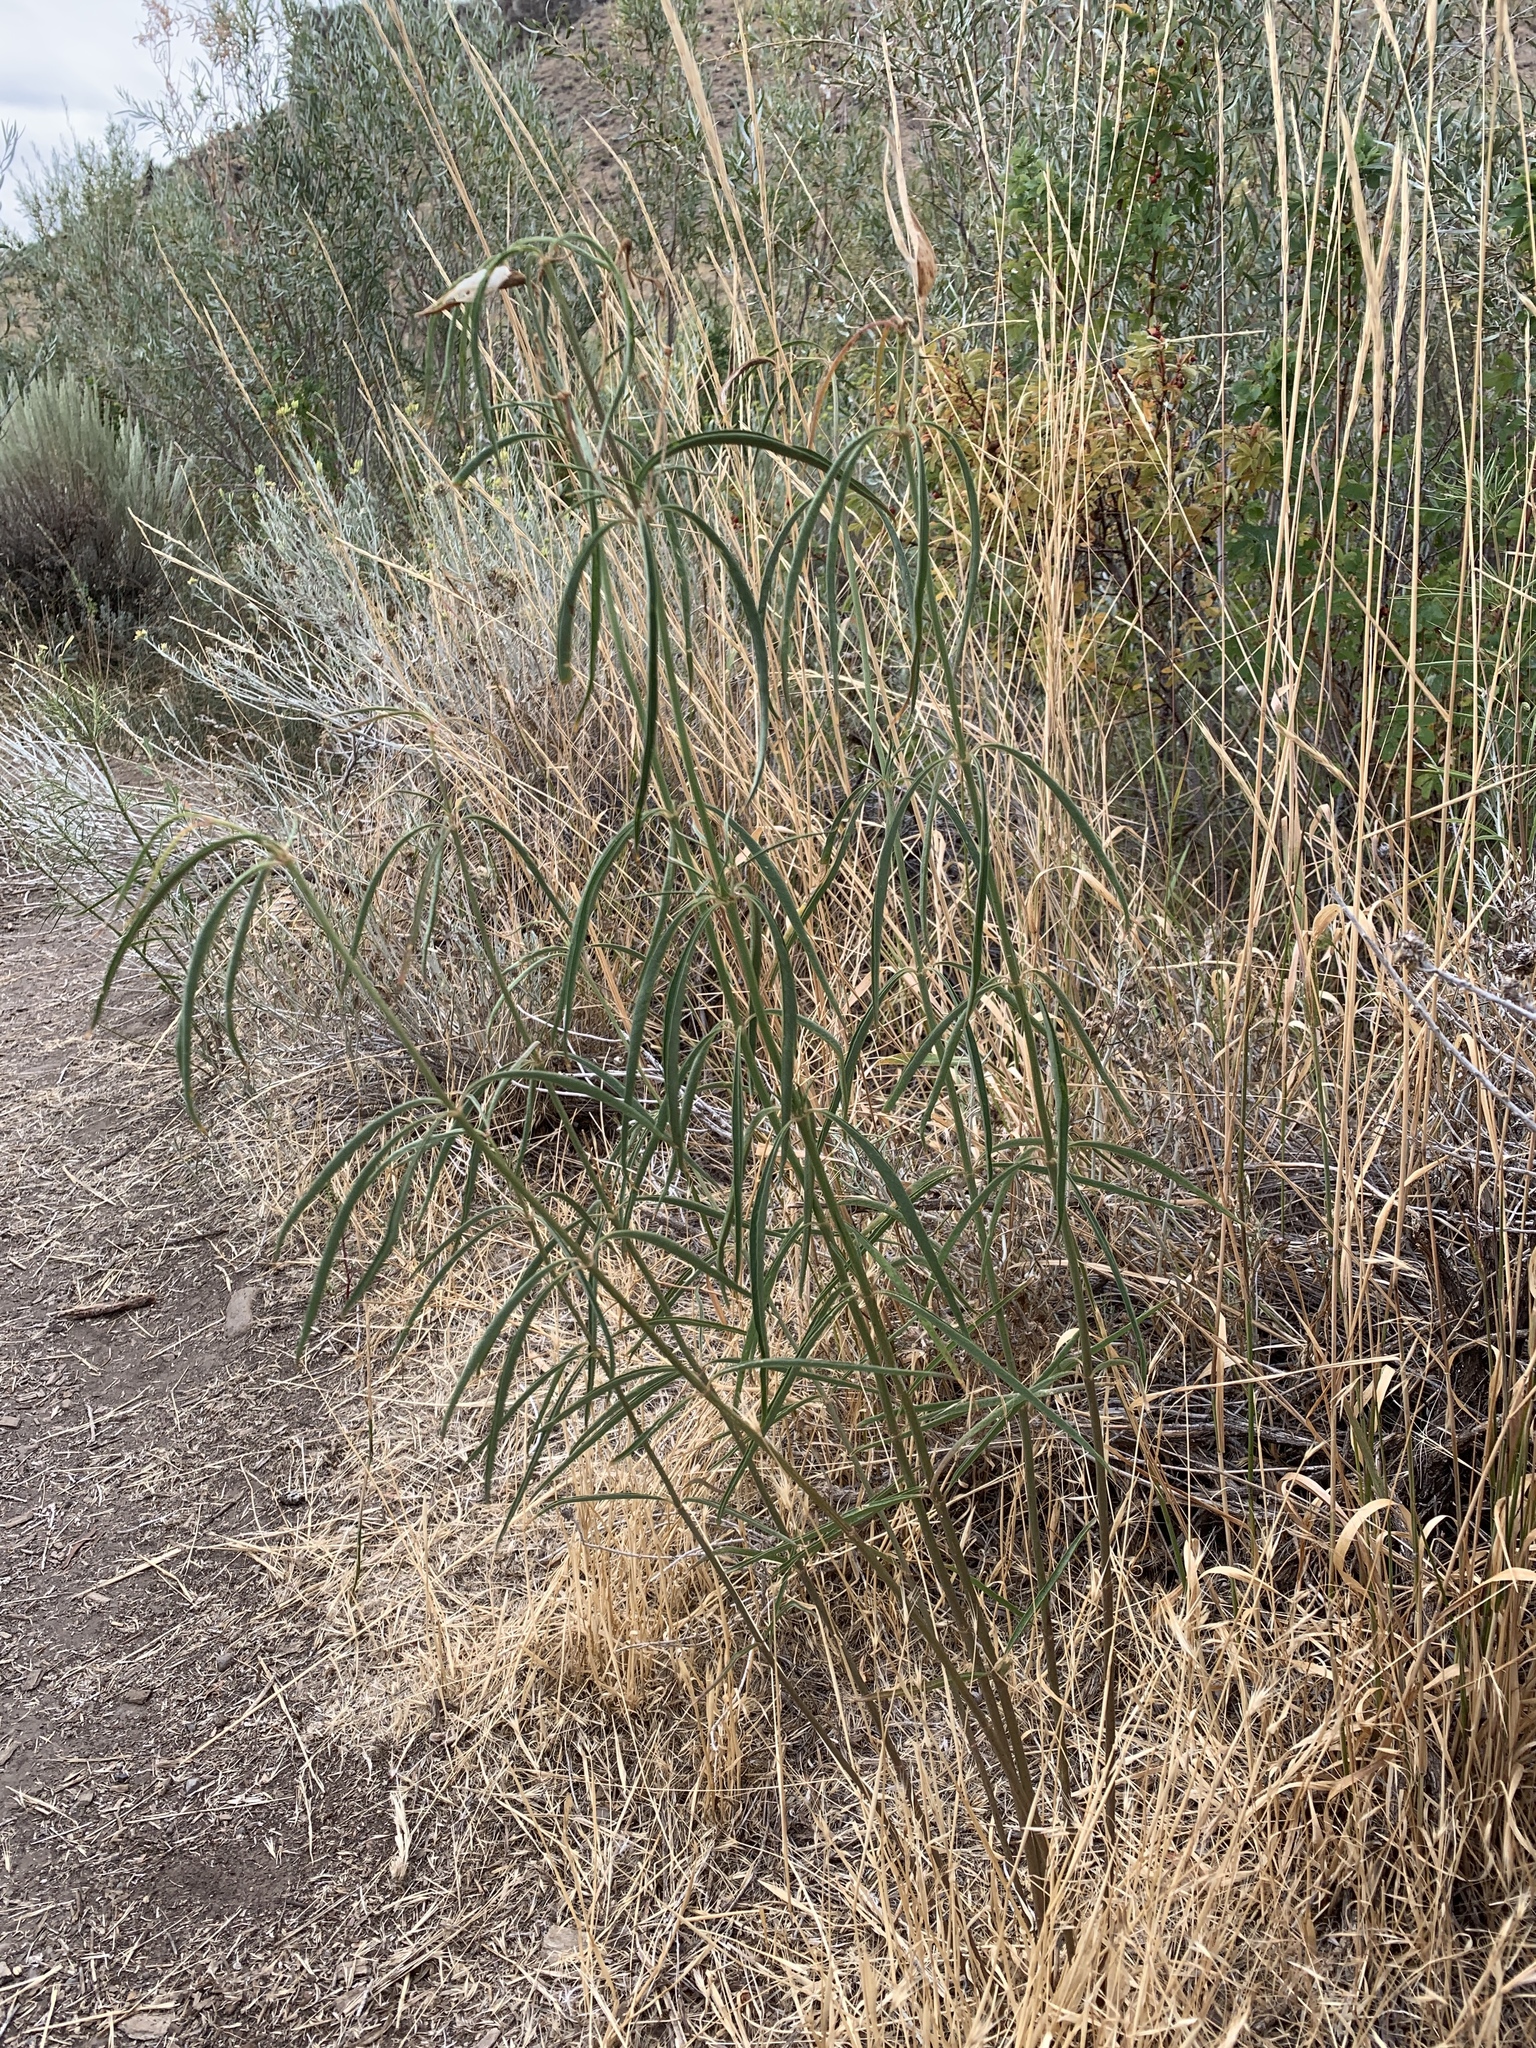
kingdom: Plantae
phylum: Tracheophyta
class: Magnoliopsida
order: Gentianales
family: Apocynaceae
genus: Asclepias
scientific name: Asclepias fascicularis
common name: Mexican milkweed
